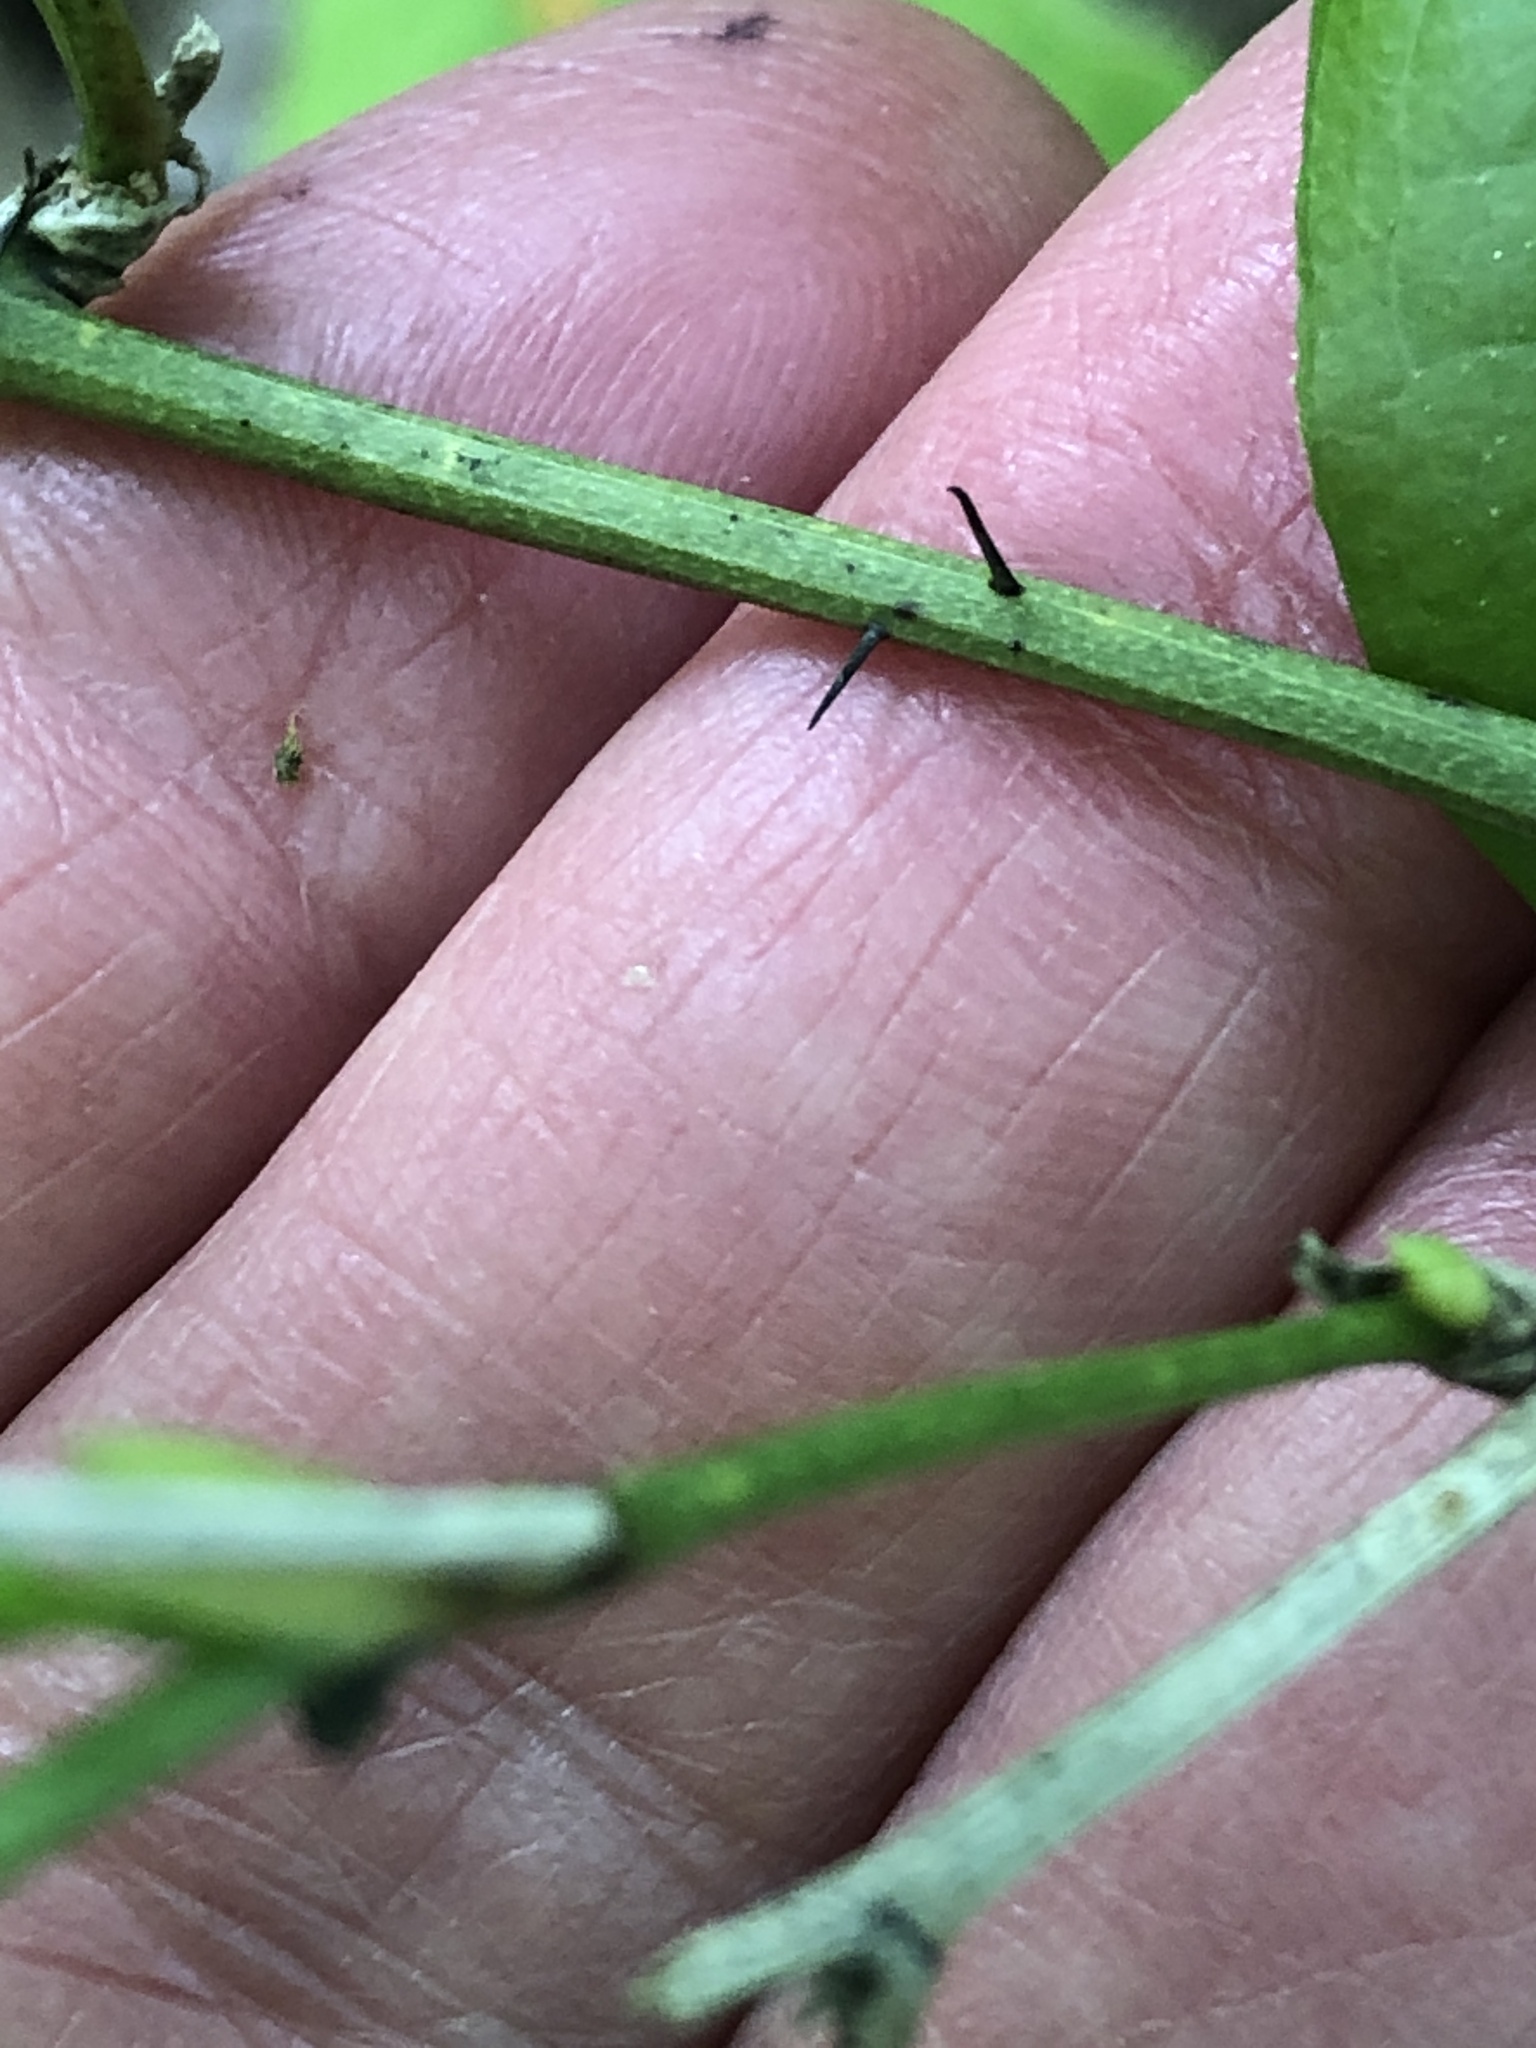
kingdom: Plantae
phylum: Tracheophyta
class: Liliopsida
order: Liliales
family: Smilacaceae
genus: Smilax
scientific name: Smilax tamnoides
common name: Hellfetter
